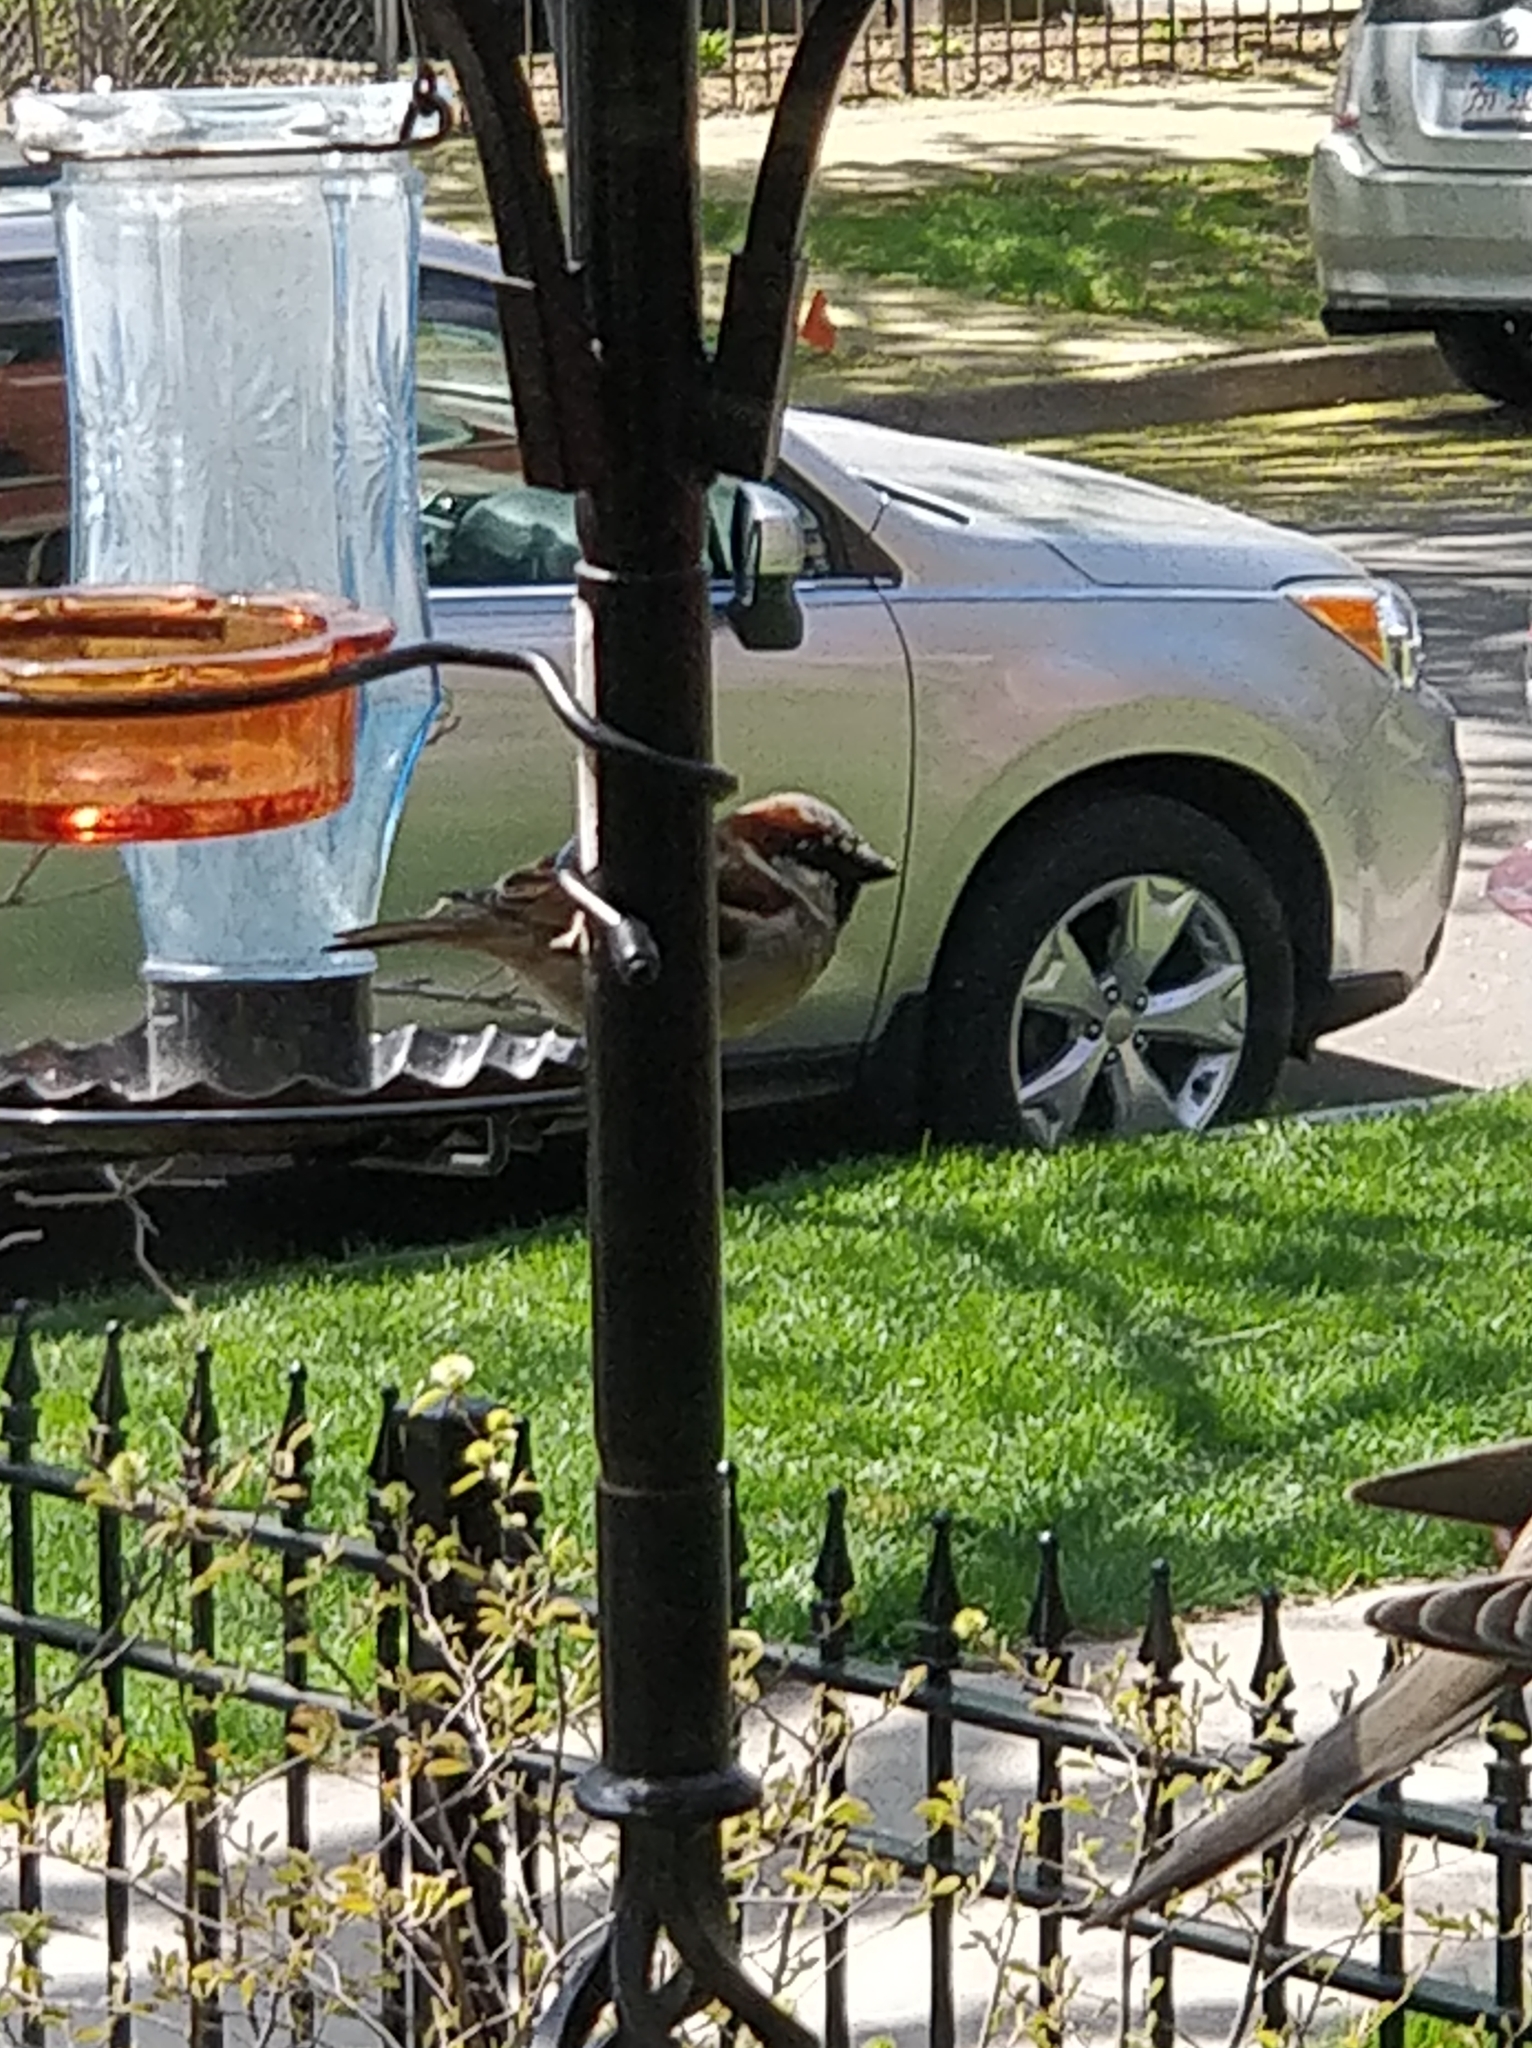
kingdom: Animalia
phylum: Chordata
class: Aves
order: Passeriformes
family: Passeridae
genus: Passer
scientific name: Passer domesticus
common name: House sparrow
